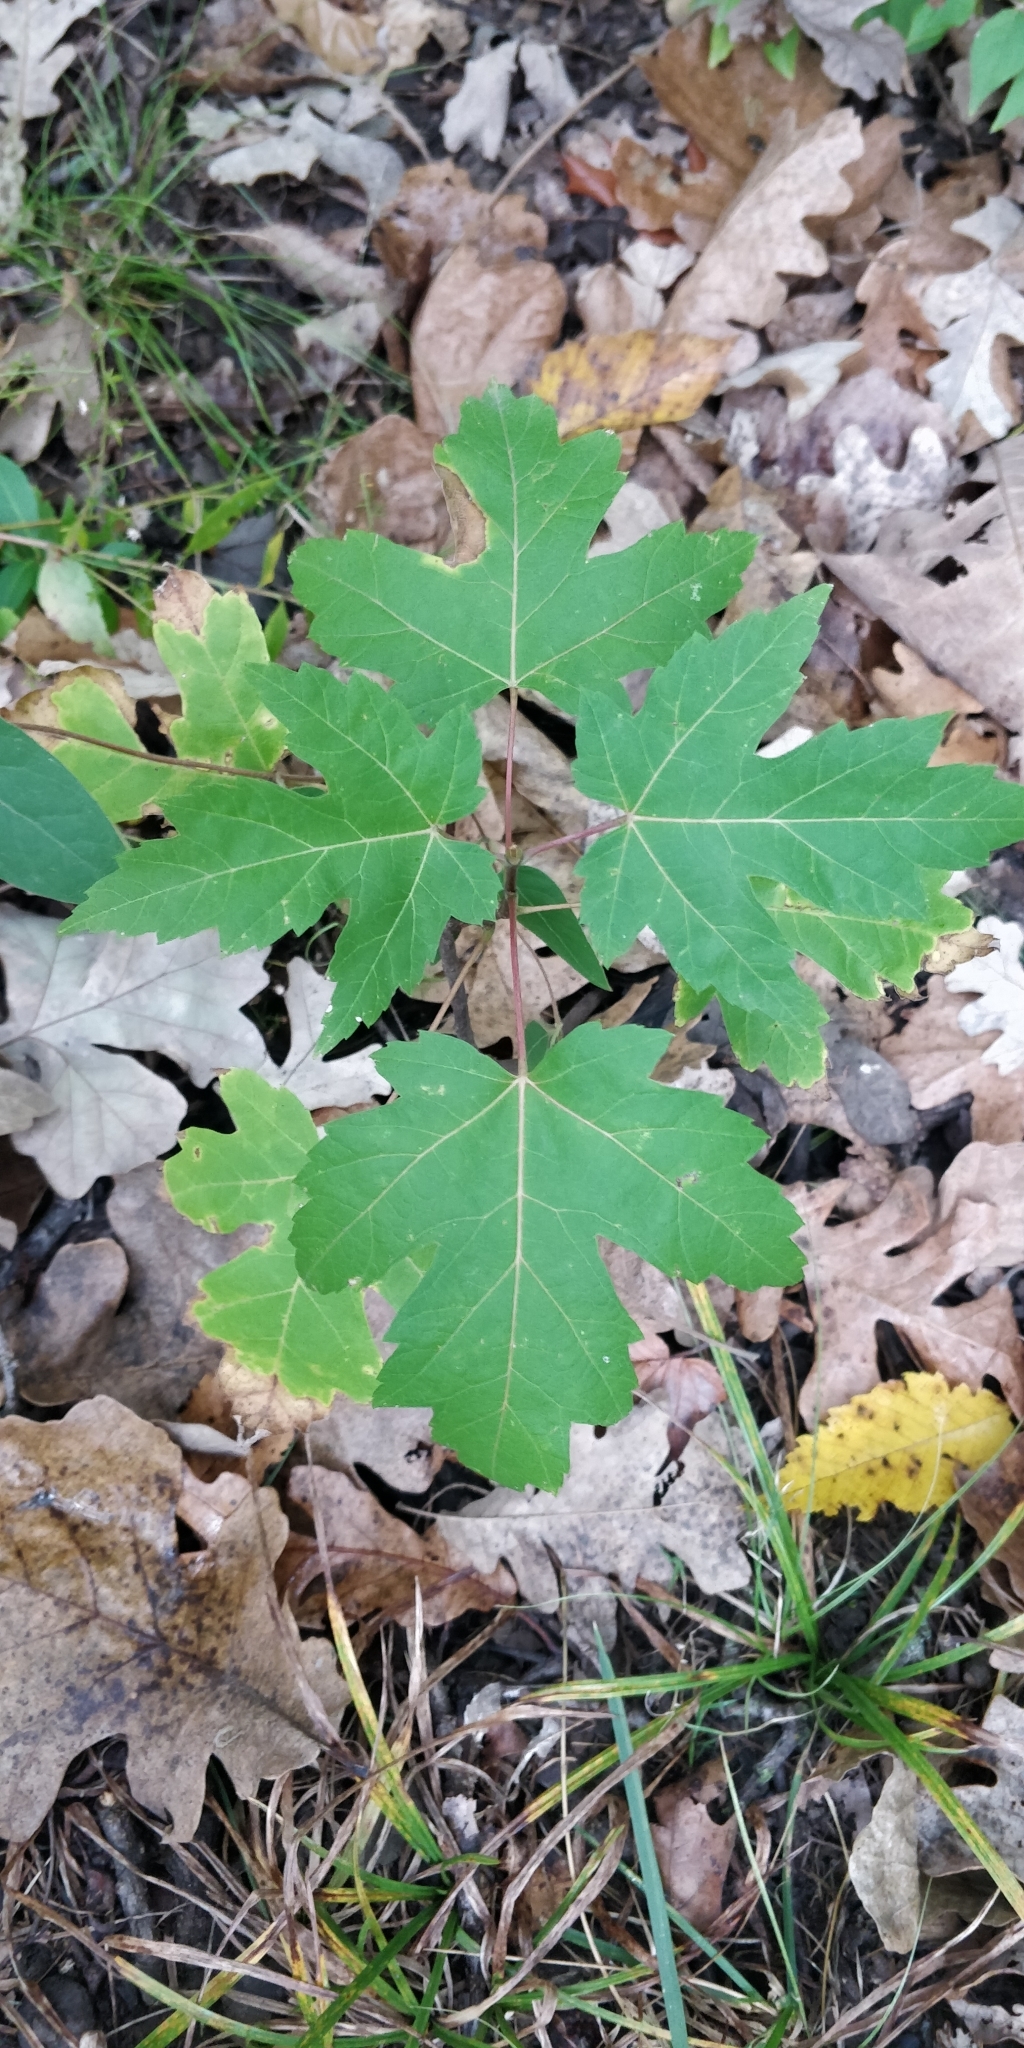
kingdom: Plantae
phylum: Tracheophyta
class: Magnoliopsida
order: Sapindales
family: Sapindaceae
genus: Acer
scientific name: Acer saccharinum
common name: Silver maple
